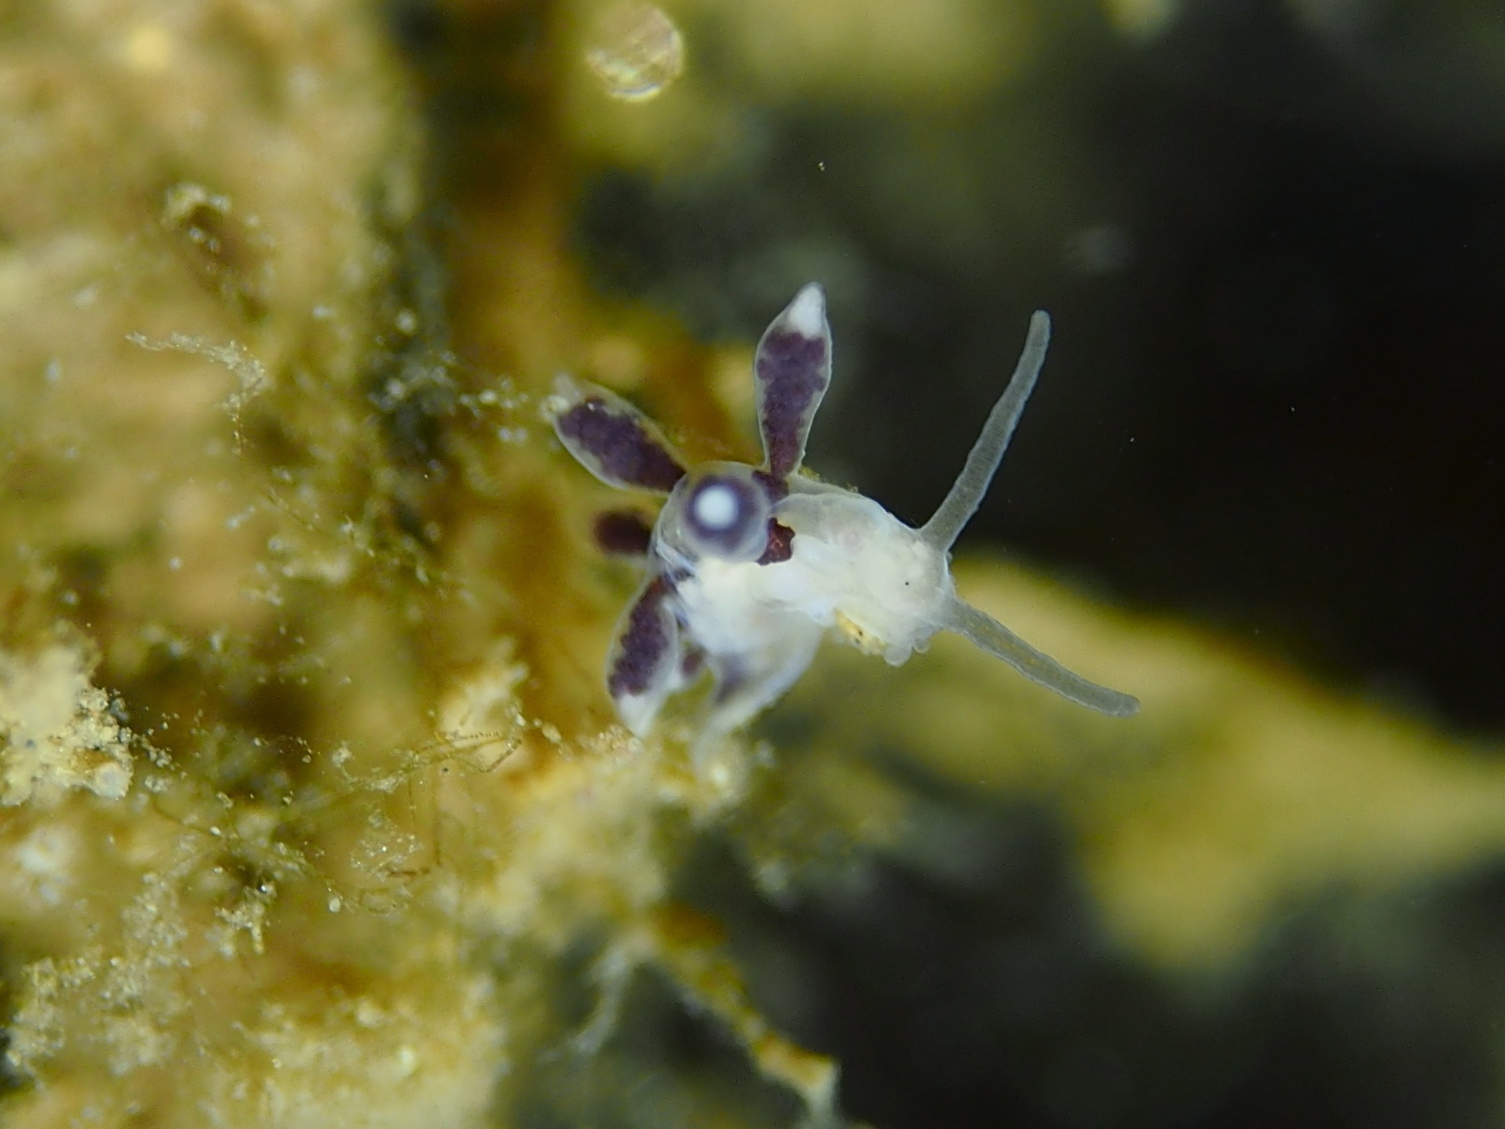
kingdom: Animalia
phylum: Mollusca
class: Gastropoda
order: Nudibranchia
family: Tergipedidae
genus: Tergipes
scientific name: Tergipes tergipes
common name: Johnston's balloon eolis
